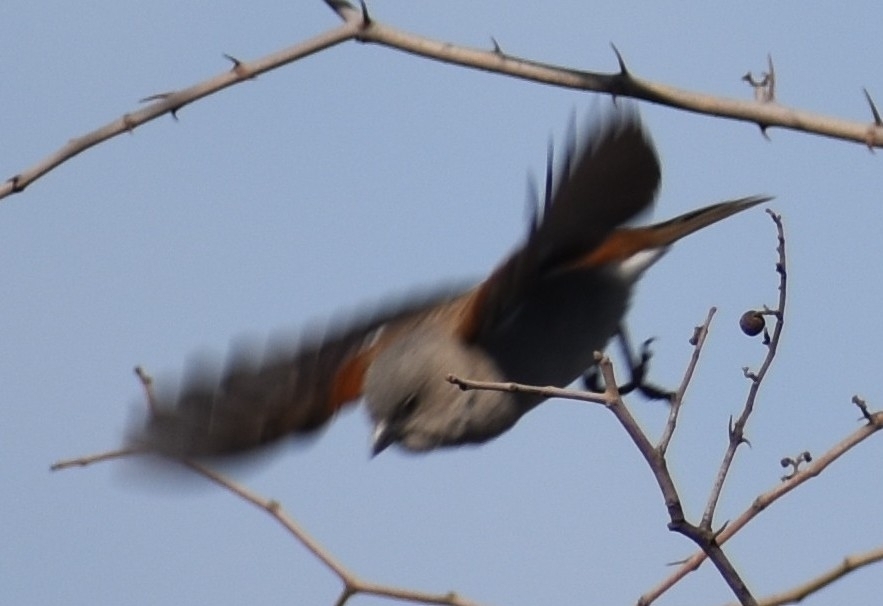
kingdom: Animalia
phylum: Chordata
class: Aves
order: Passeriformes
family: Passeridae
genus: Passer
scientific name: Passer diffusus
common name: Southern grey-headed sparrow
